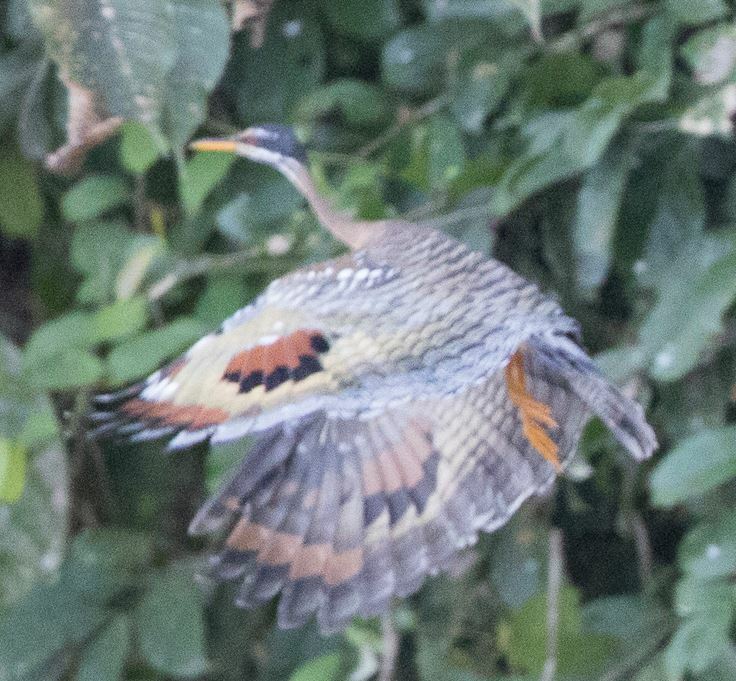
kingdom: Animalia
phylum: Chordata
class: Aves
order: Eurypygiformes
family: Eurypygidae
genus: Eurypyga
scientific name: Eurypyga helias
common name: Sunbittern
